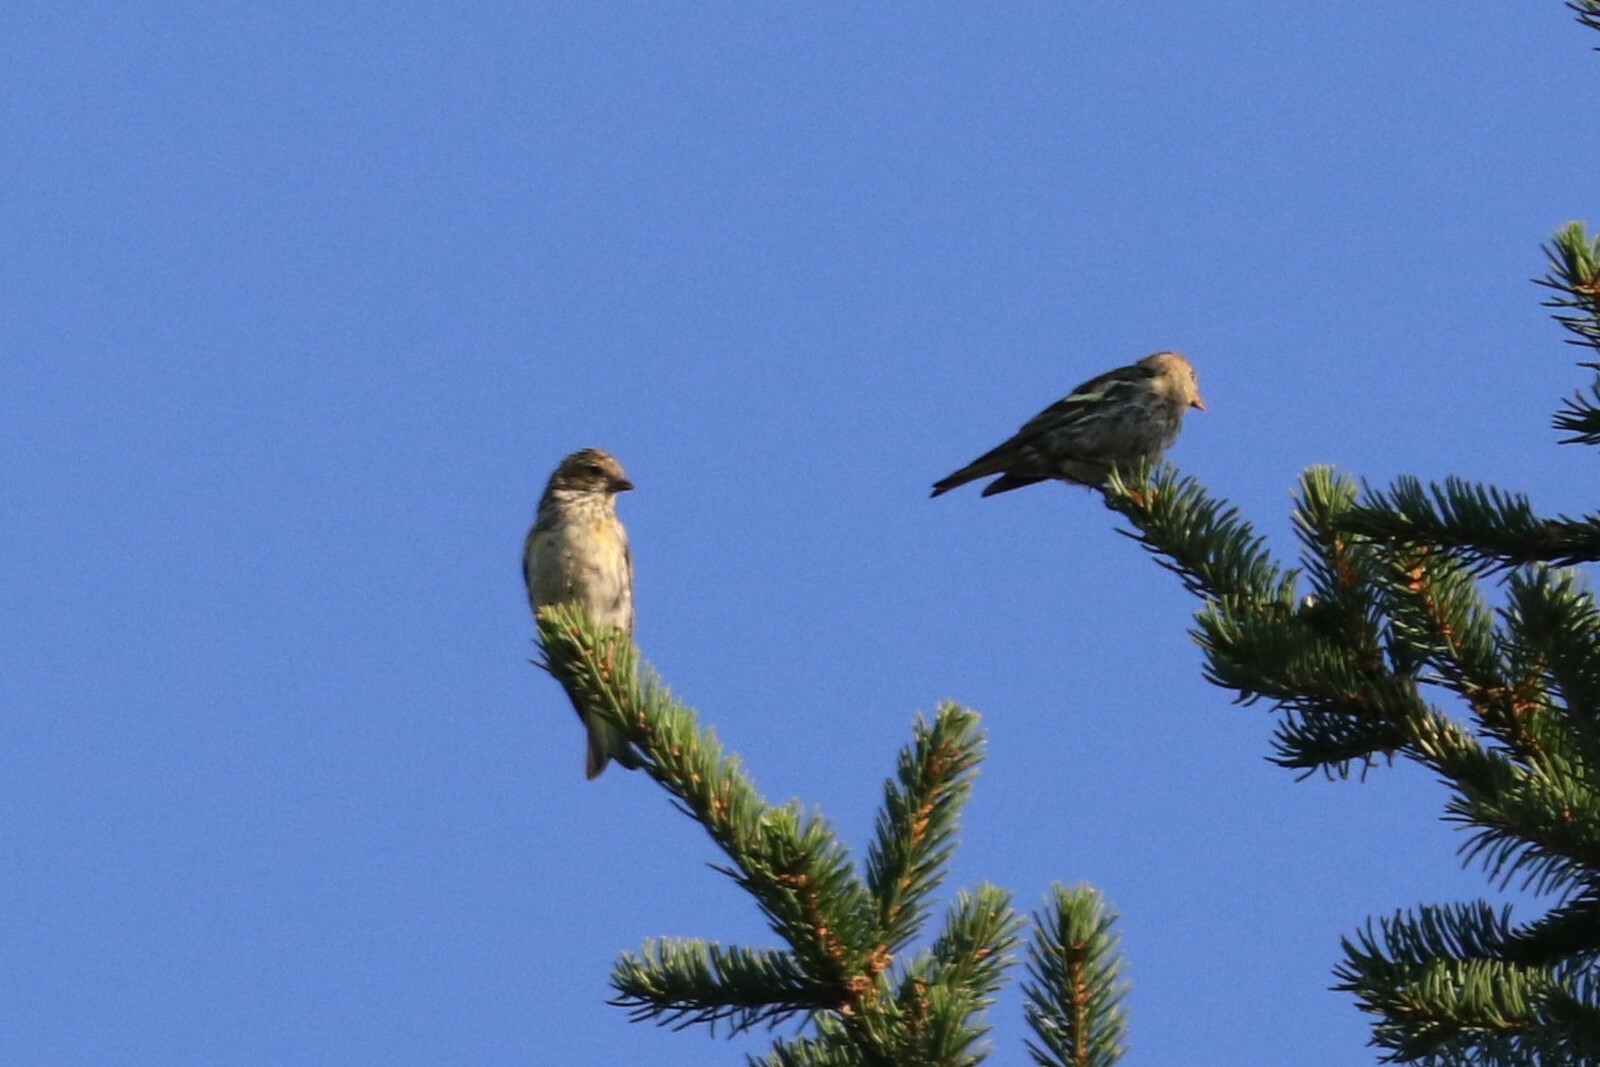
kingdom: Animalia
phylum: Chordata
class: Aves
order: Passeriformes
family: Fringillidae
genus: Spinus
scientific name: Spinus spinus
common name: Eurasian siskin
